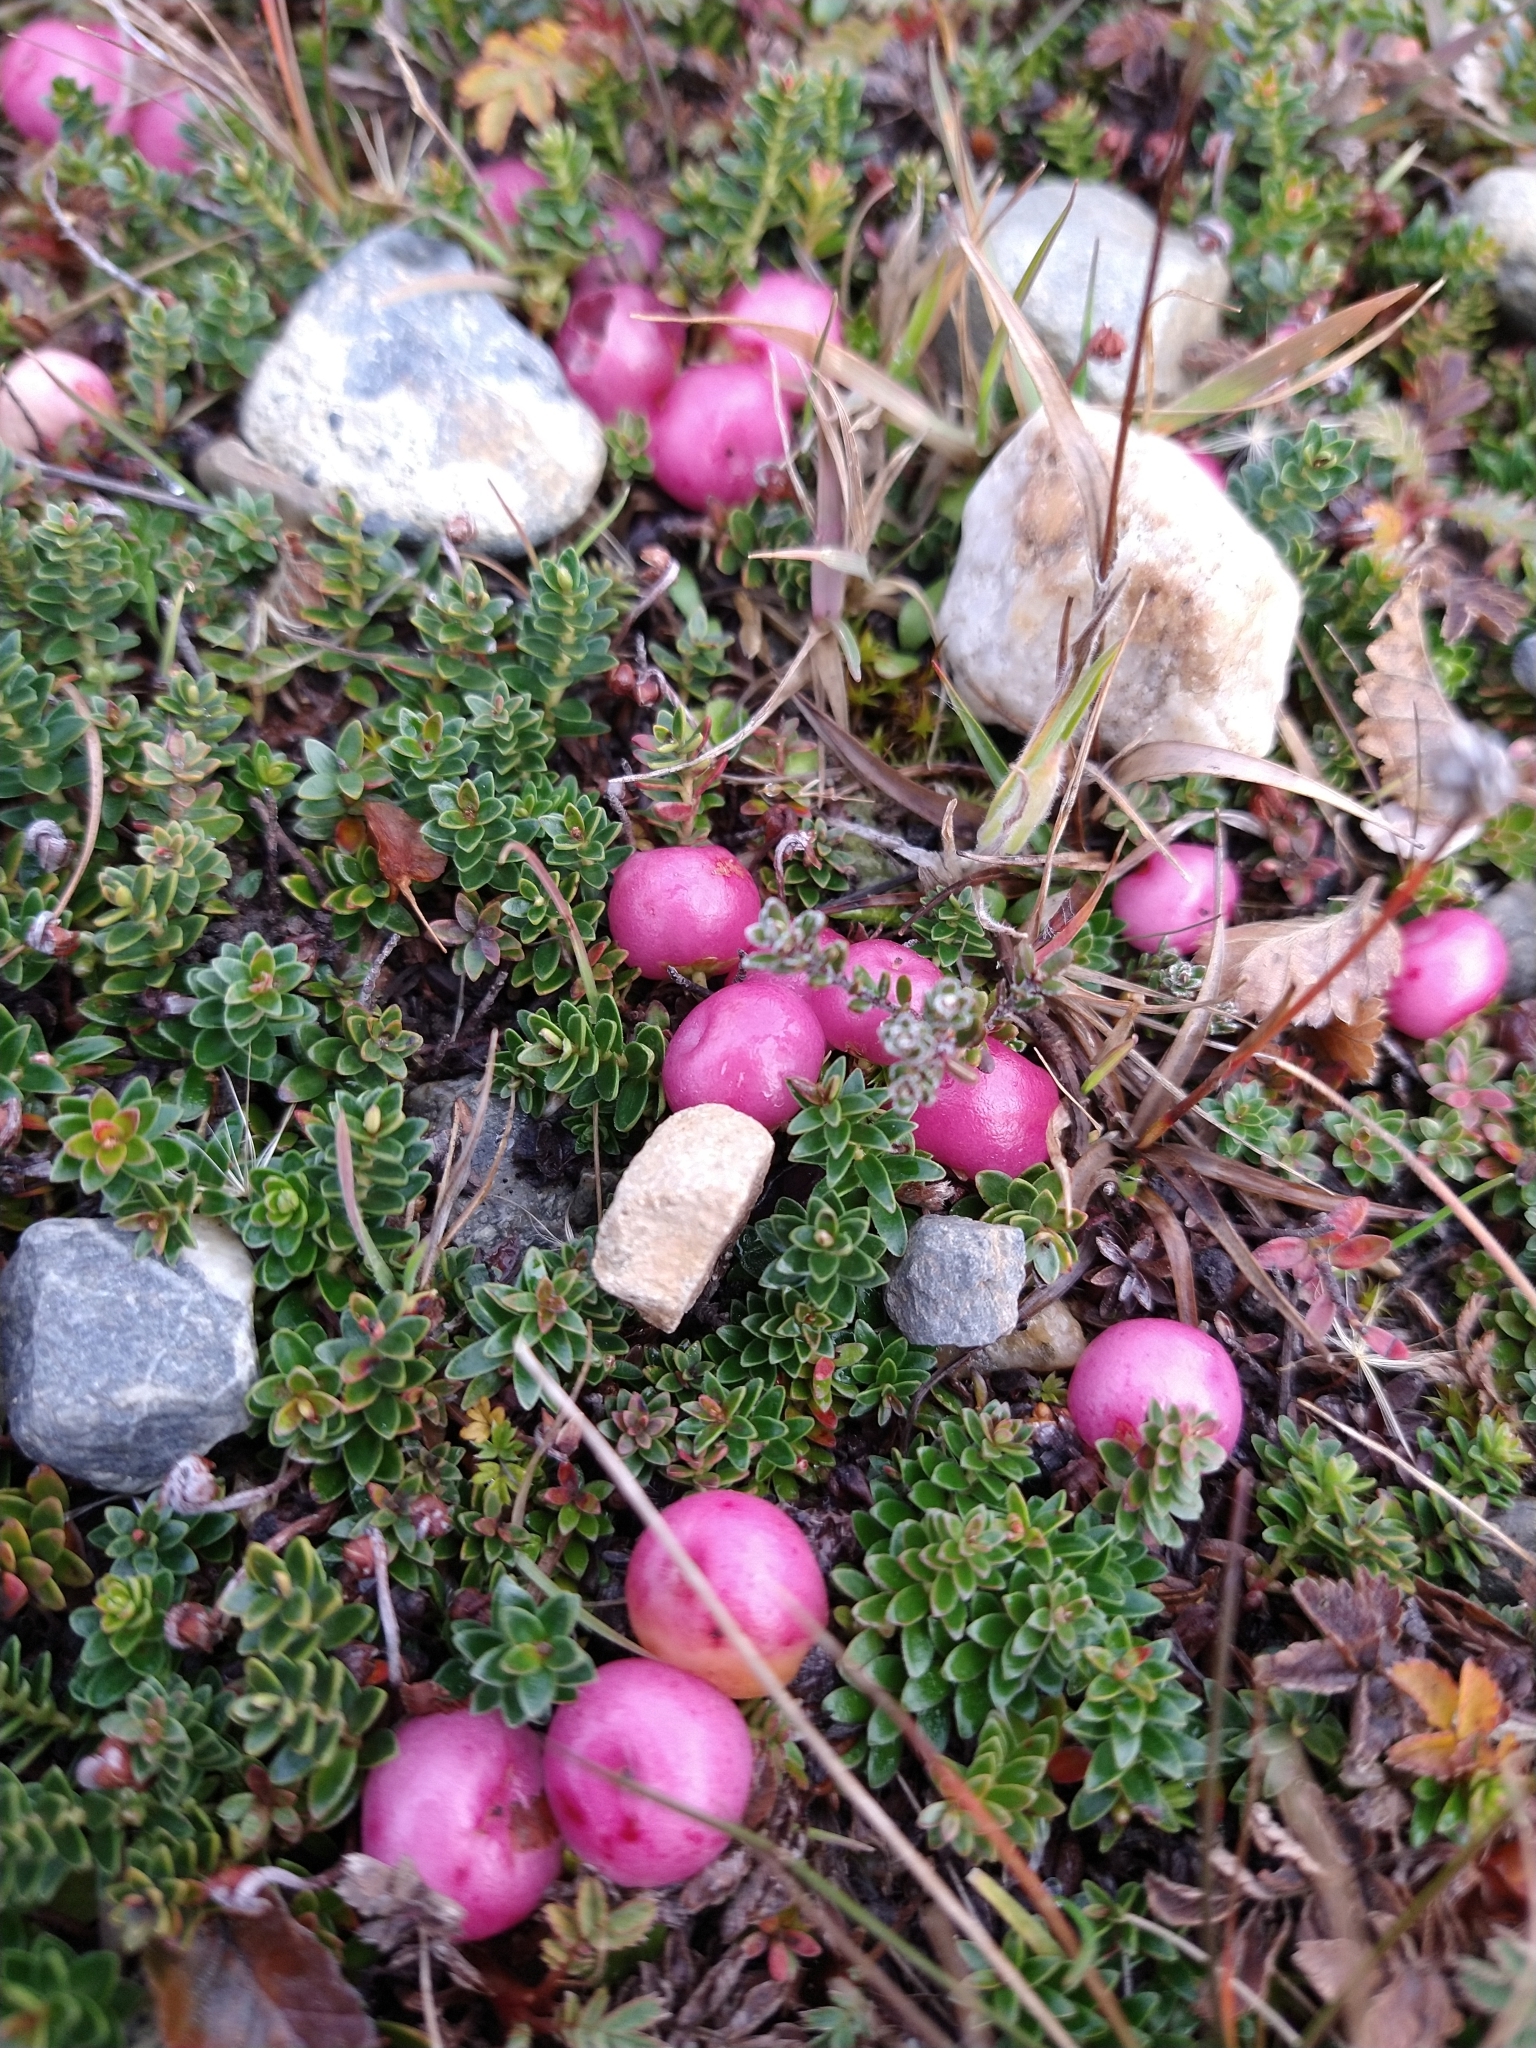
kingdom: Plantae
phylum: Tracheophyta
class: Magnoliopsida
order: Ericales
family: Ericaceae
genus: Gaultheria
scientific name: Gaultheria pumila
